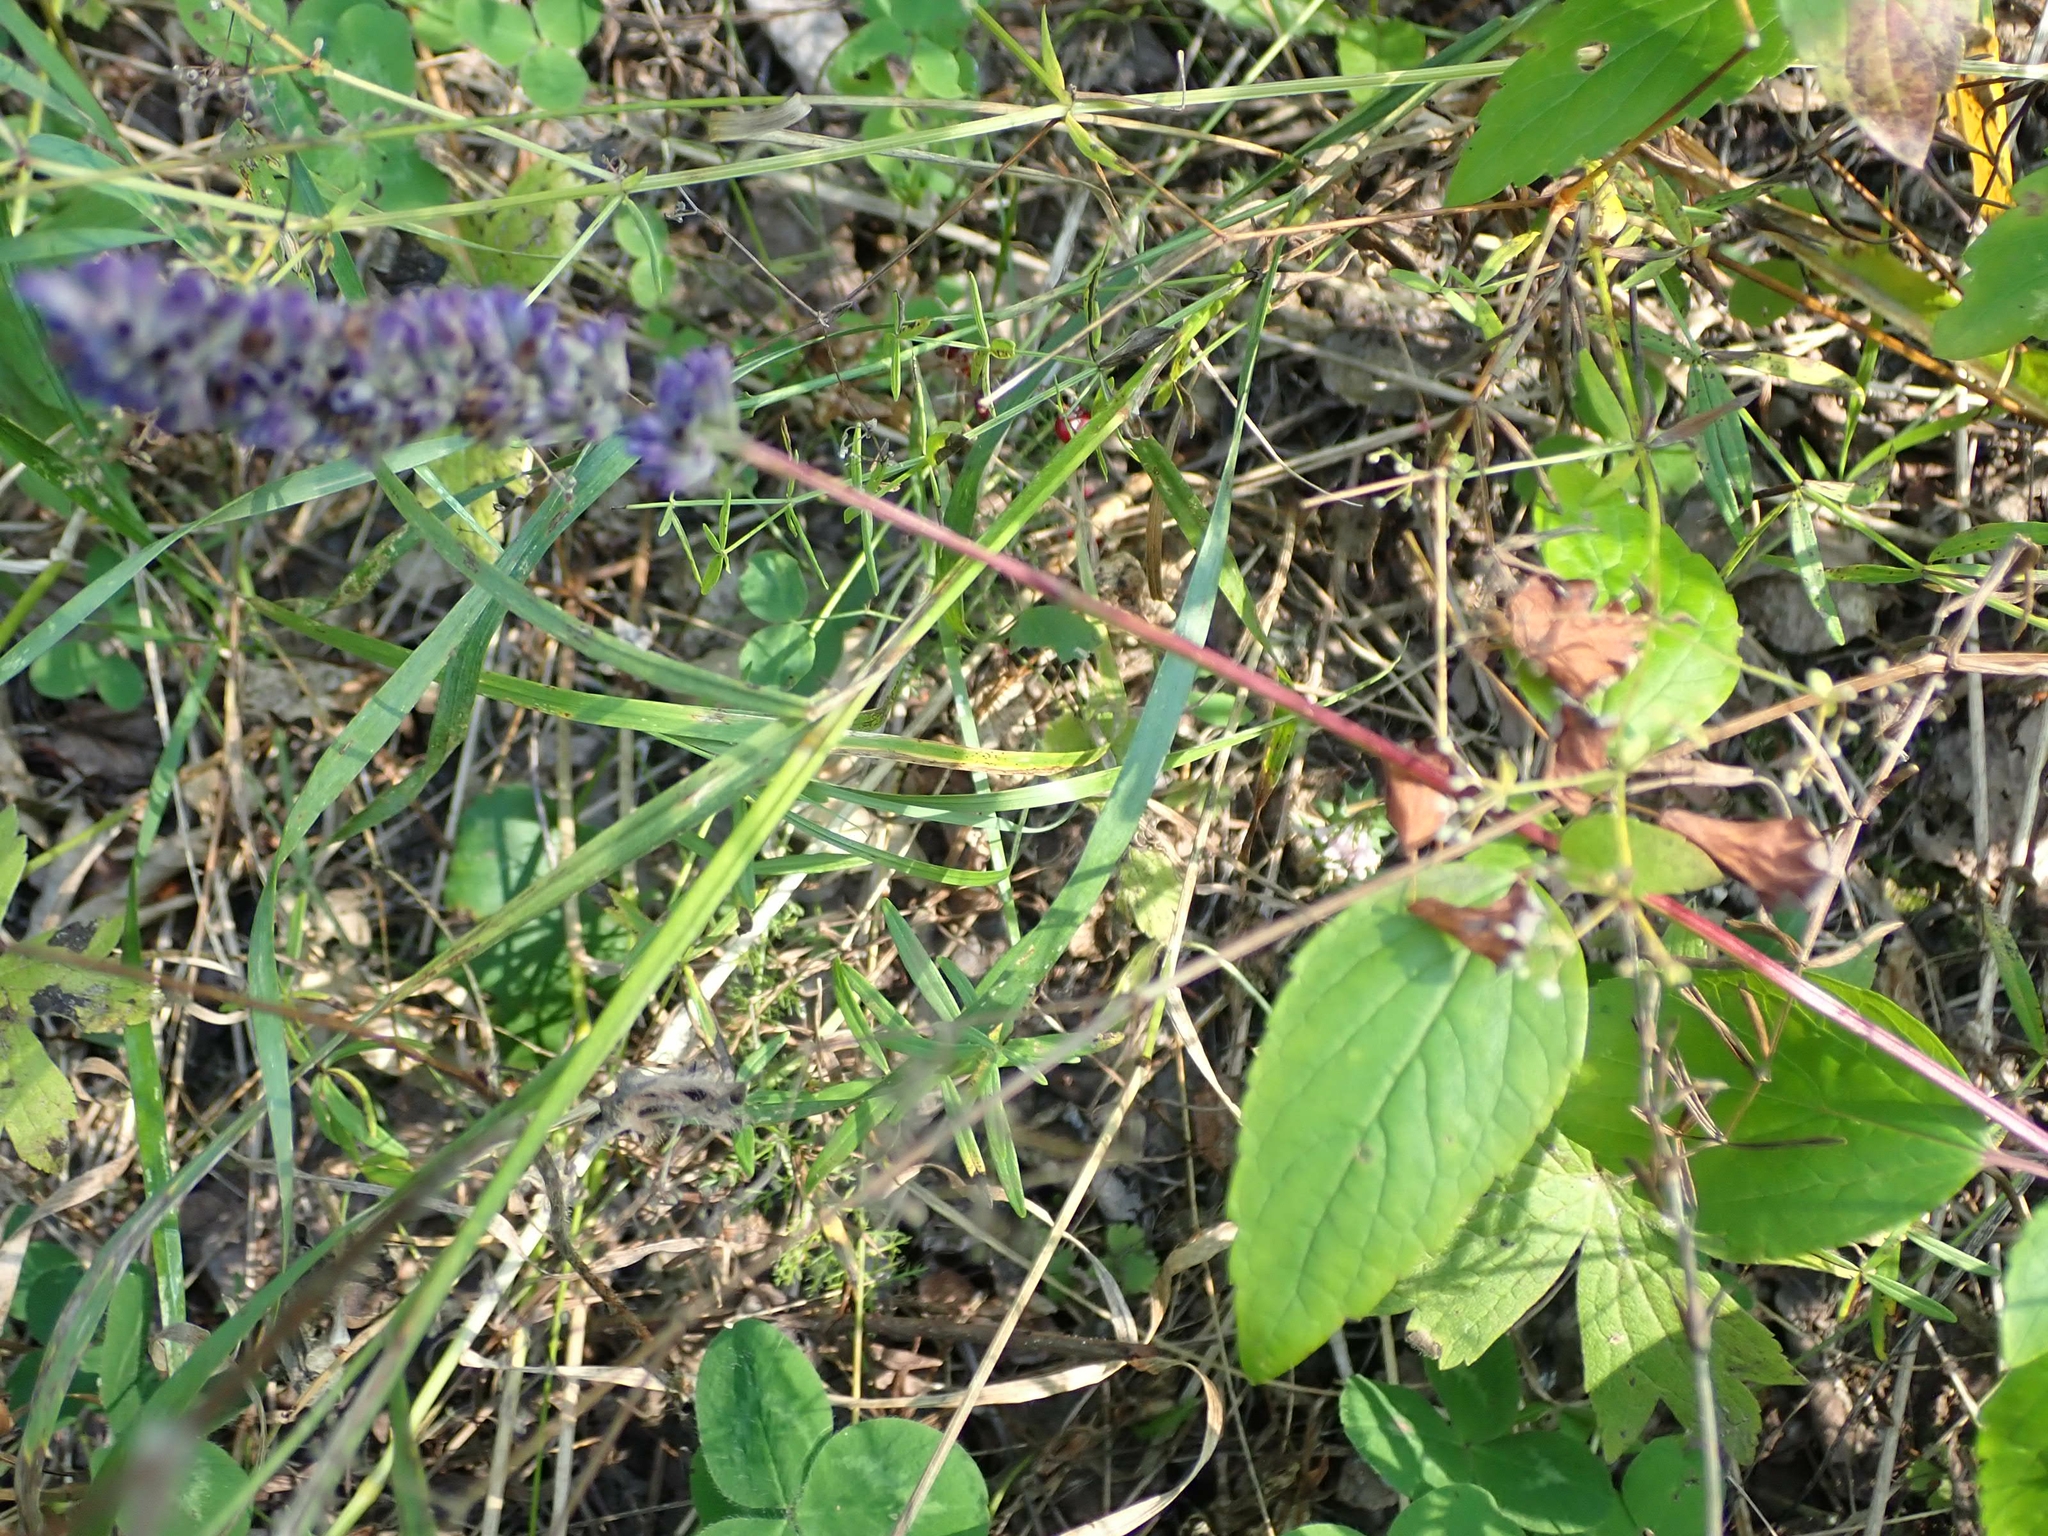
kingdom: Plantae
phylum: Tracheophyta
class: Magnoliopsida
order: Lamiales
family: Lamiaceae
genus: Agastache
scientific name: Agastache foeniculum
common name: Anise hyssop
